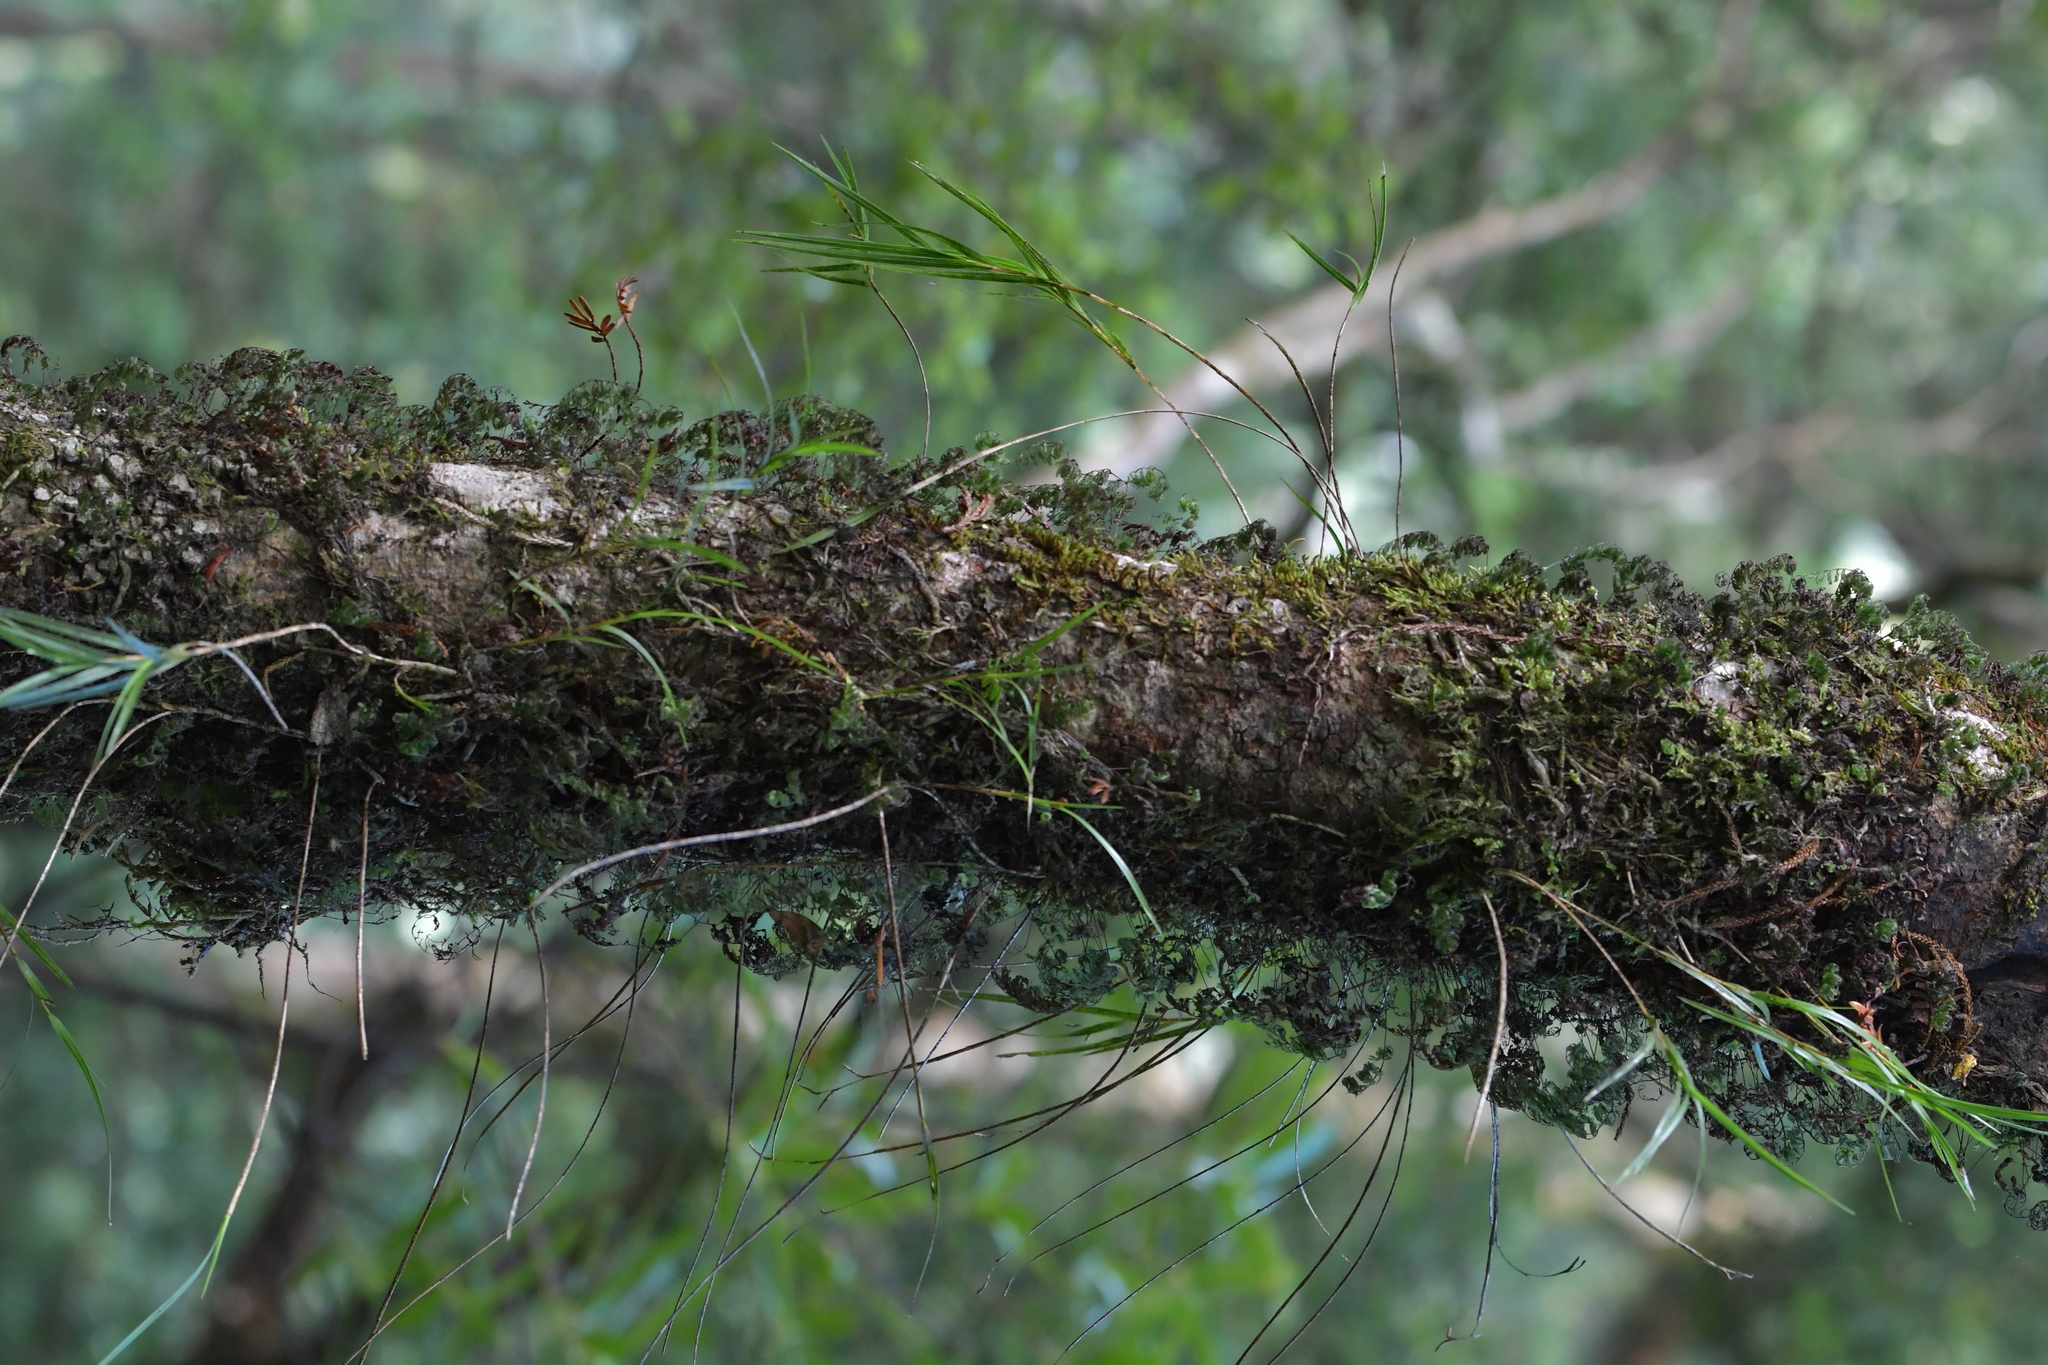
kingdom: Plantae
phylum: Tracheophyta
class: Liliopsida
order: Asparagales
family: Orchidaceae
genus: Earina
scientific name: Earina mucronata
